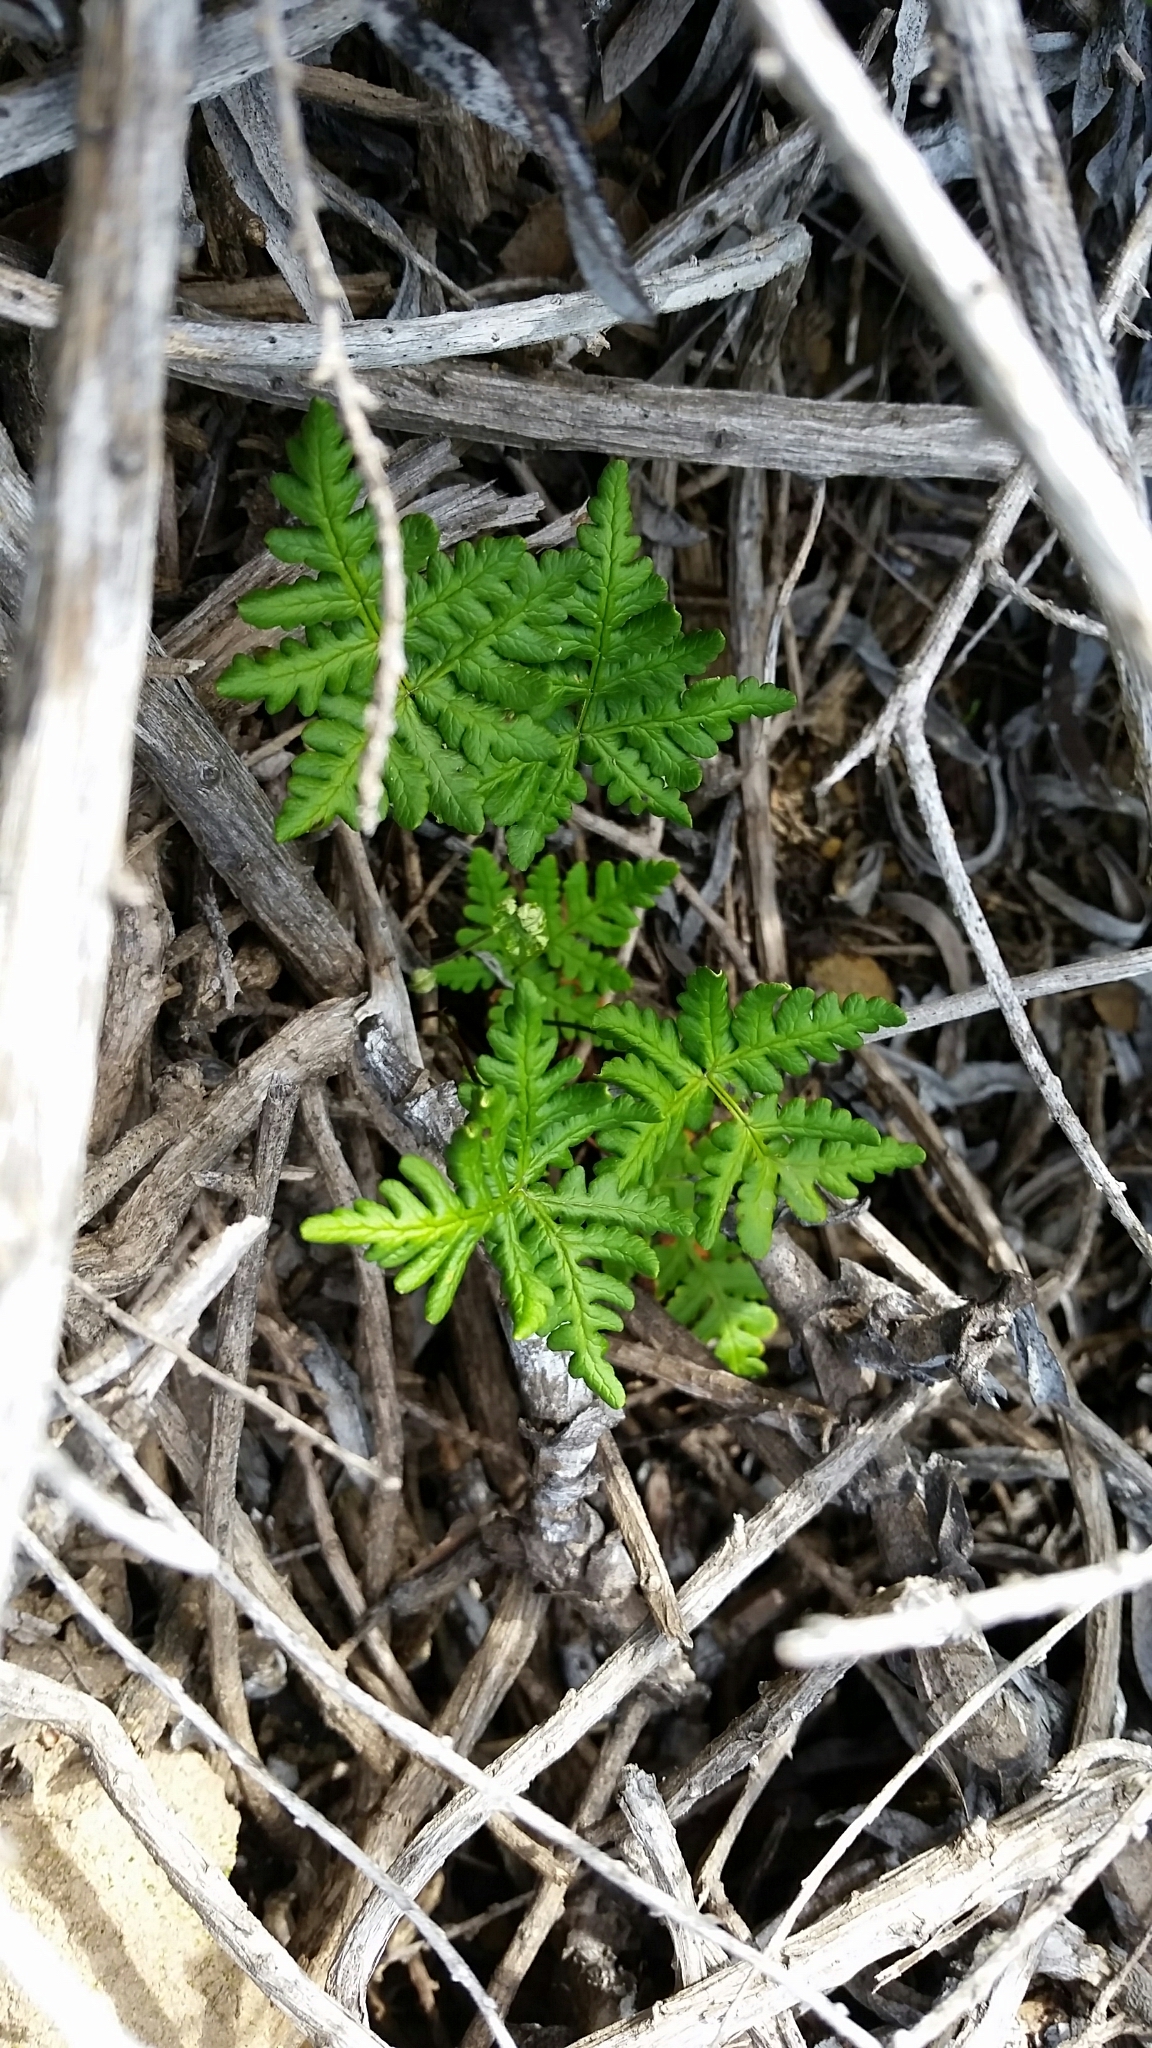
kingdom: Plantae
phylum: Tracheophyta
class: Polypodiopsida
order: Polypodiales
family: Pteridaceae
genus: Pentagramma
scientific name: Pentagramma triangularis
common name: Gold fern
